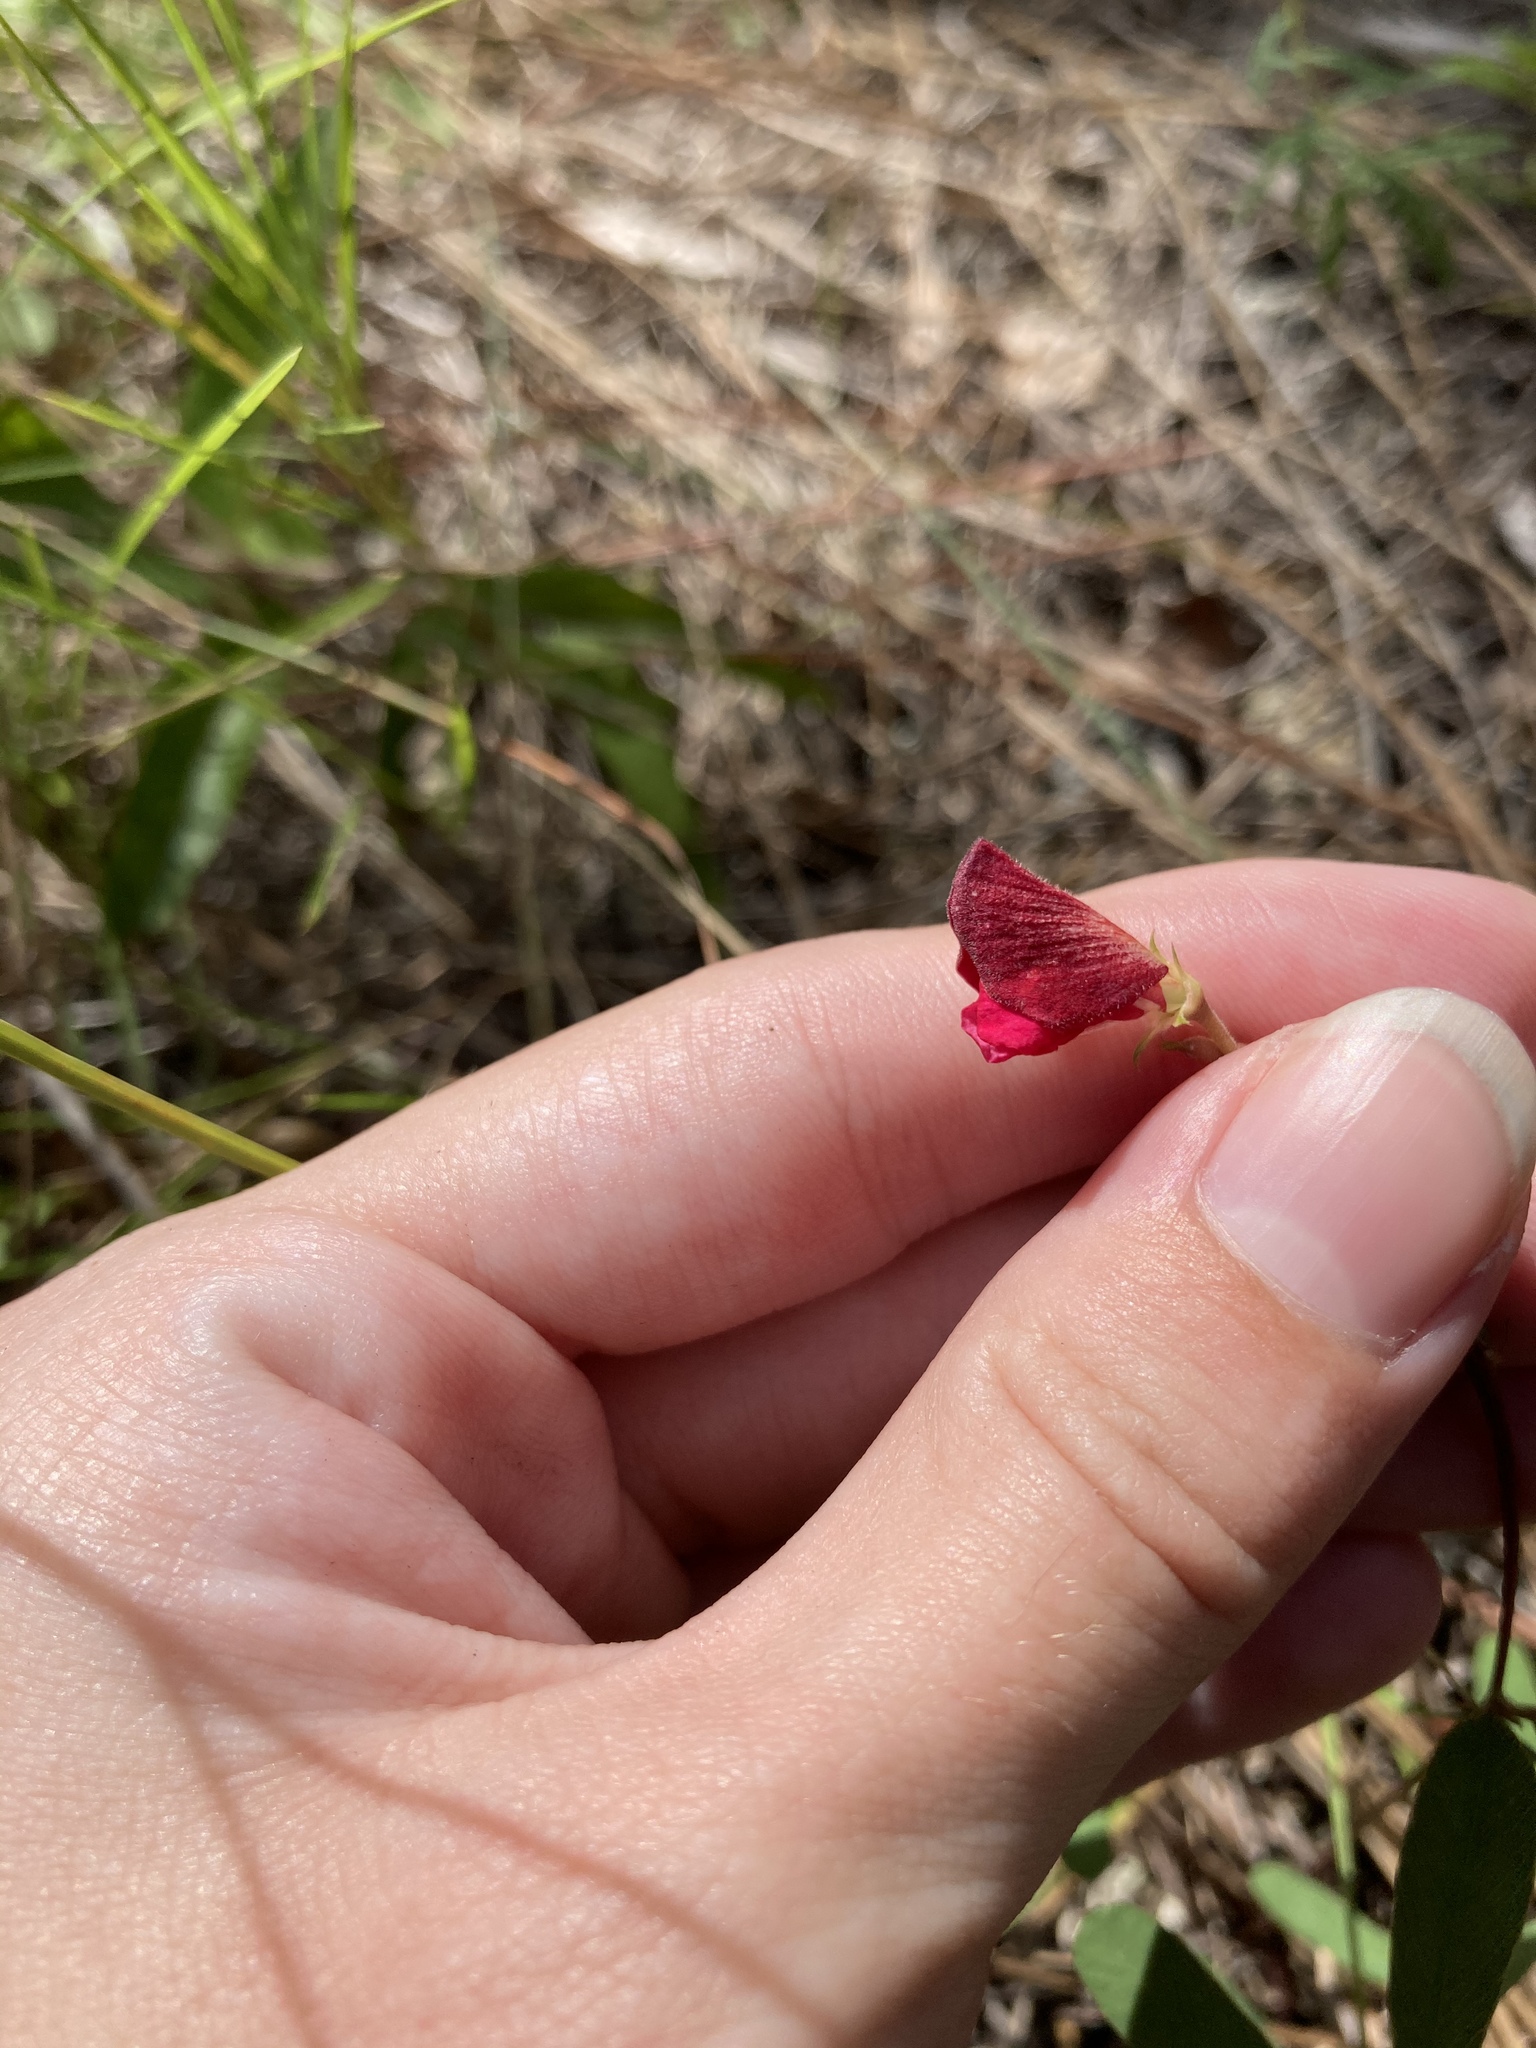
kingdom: Plantae
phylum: Tracheophyta
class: Magnoliopsida
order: Fabales
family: Fabaceae
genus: Macroptilium
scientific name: Macroptilium lathyroides
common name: Wild bushbean
